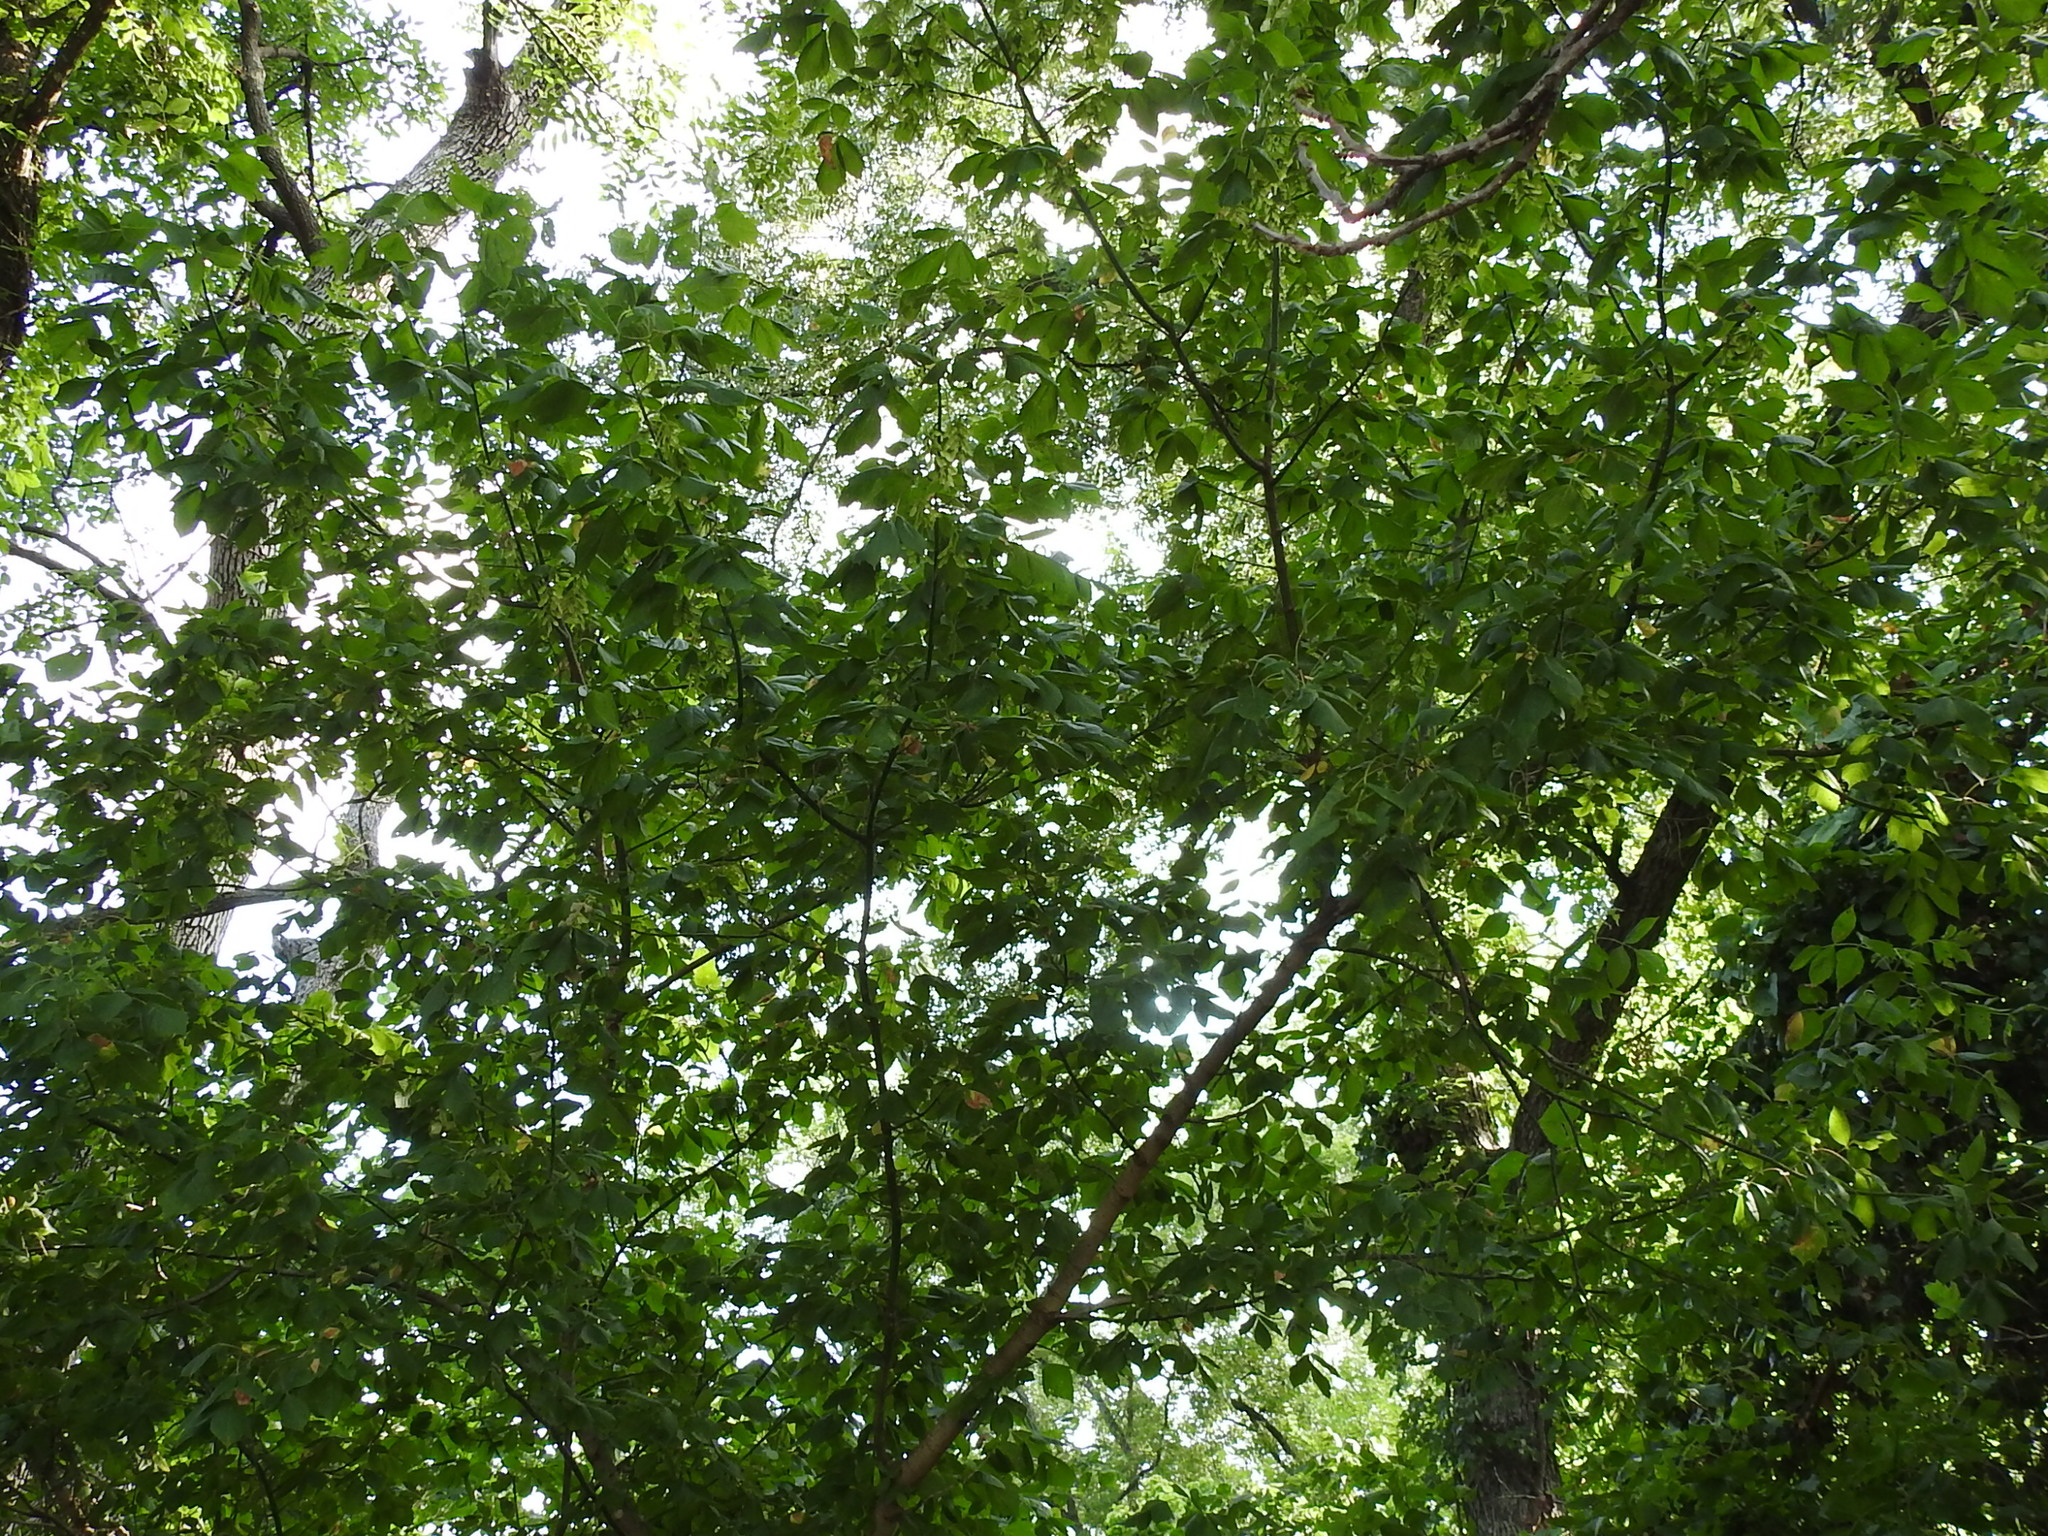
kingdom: Plantae
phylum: Tracheophyta
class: Magnoliopsida
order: Sapindales
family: Sapindaceae
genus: Acer
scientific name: Acer negundo
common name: Ashleaf maple
